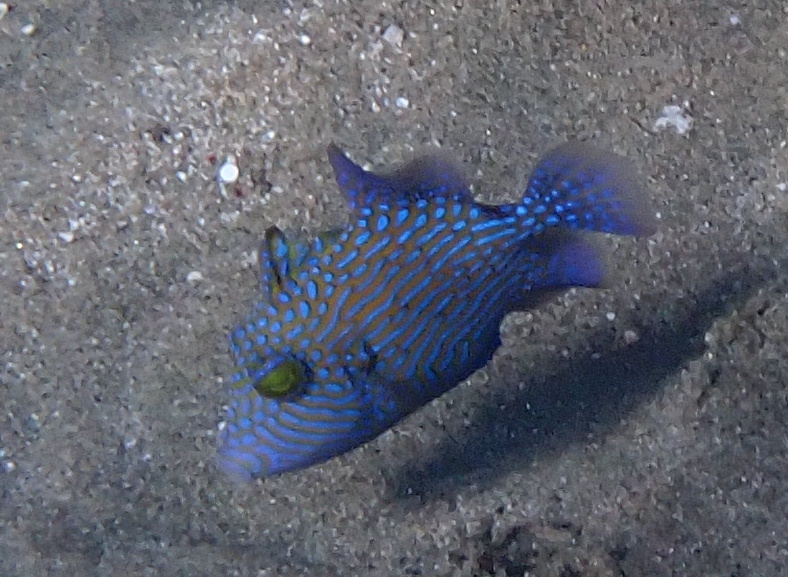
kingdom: Animalia
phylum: Chordata
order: Tetraodontiformes
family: Balistidae
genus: Pseudobalistes
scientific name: Pseudobalistes fuscus
